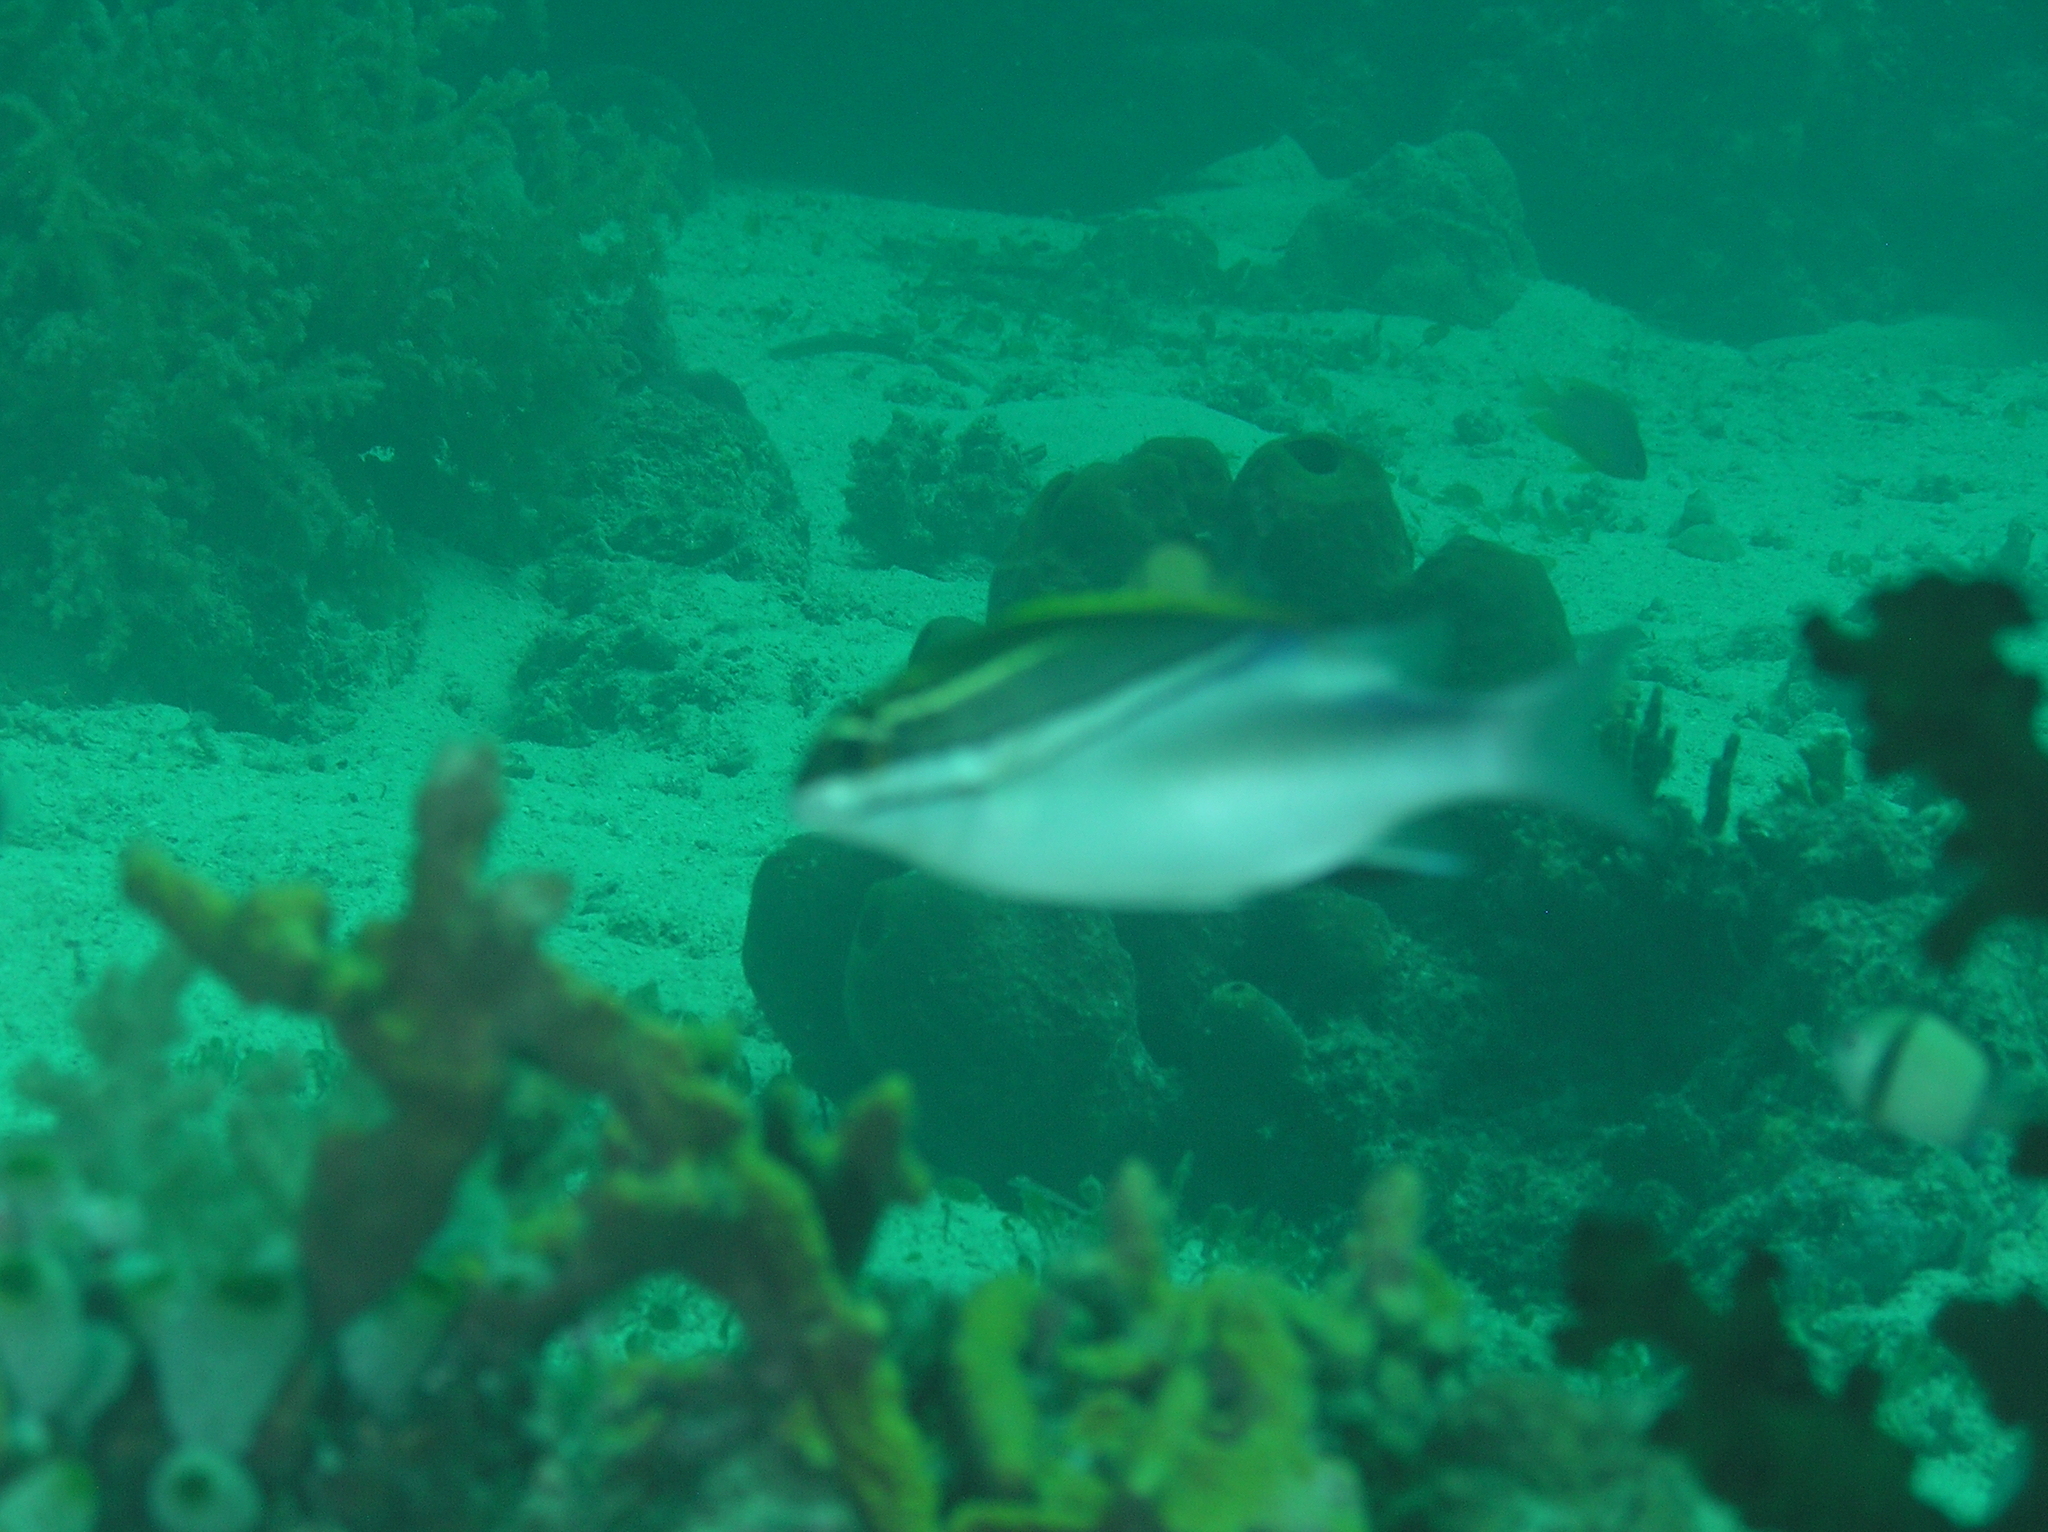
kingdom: Animalia
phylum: Chordata
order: Perciformes
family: Nemipteridae
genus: Scolopsis
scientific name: Scolopsis bilineata
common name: Two-lined monocle bream
